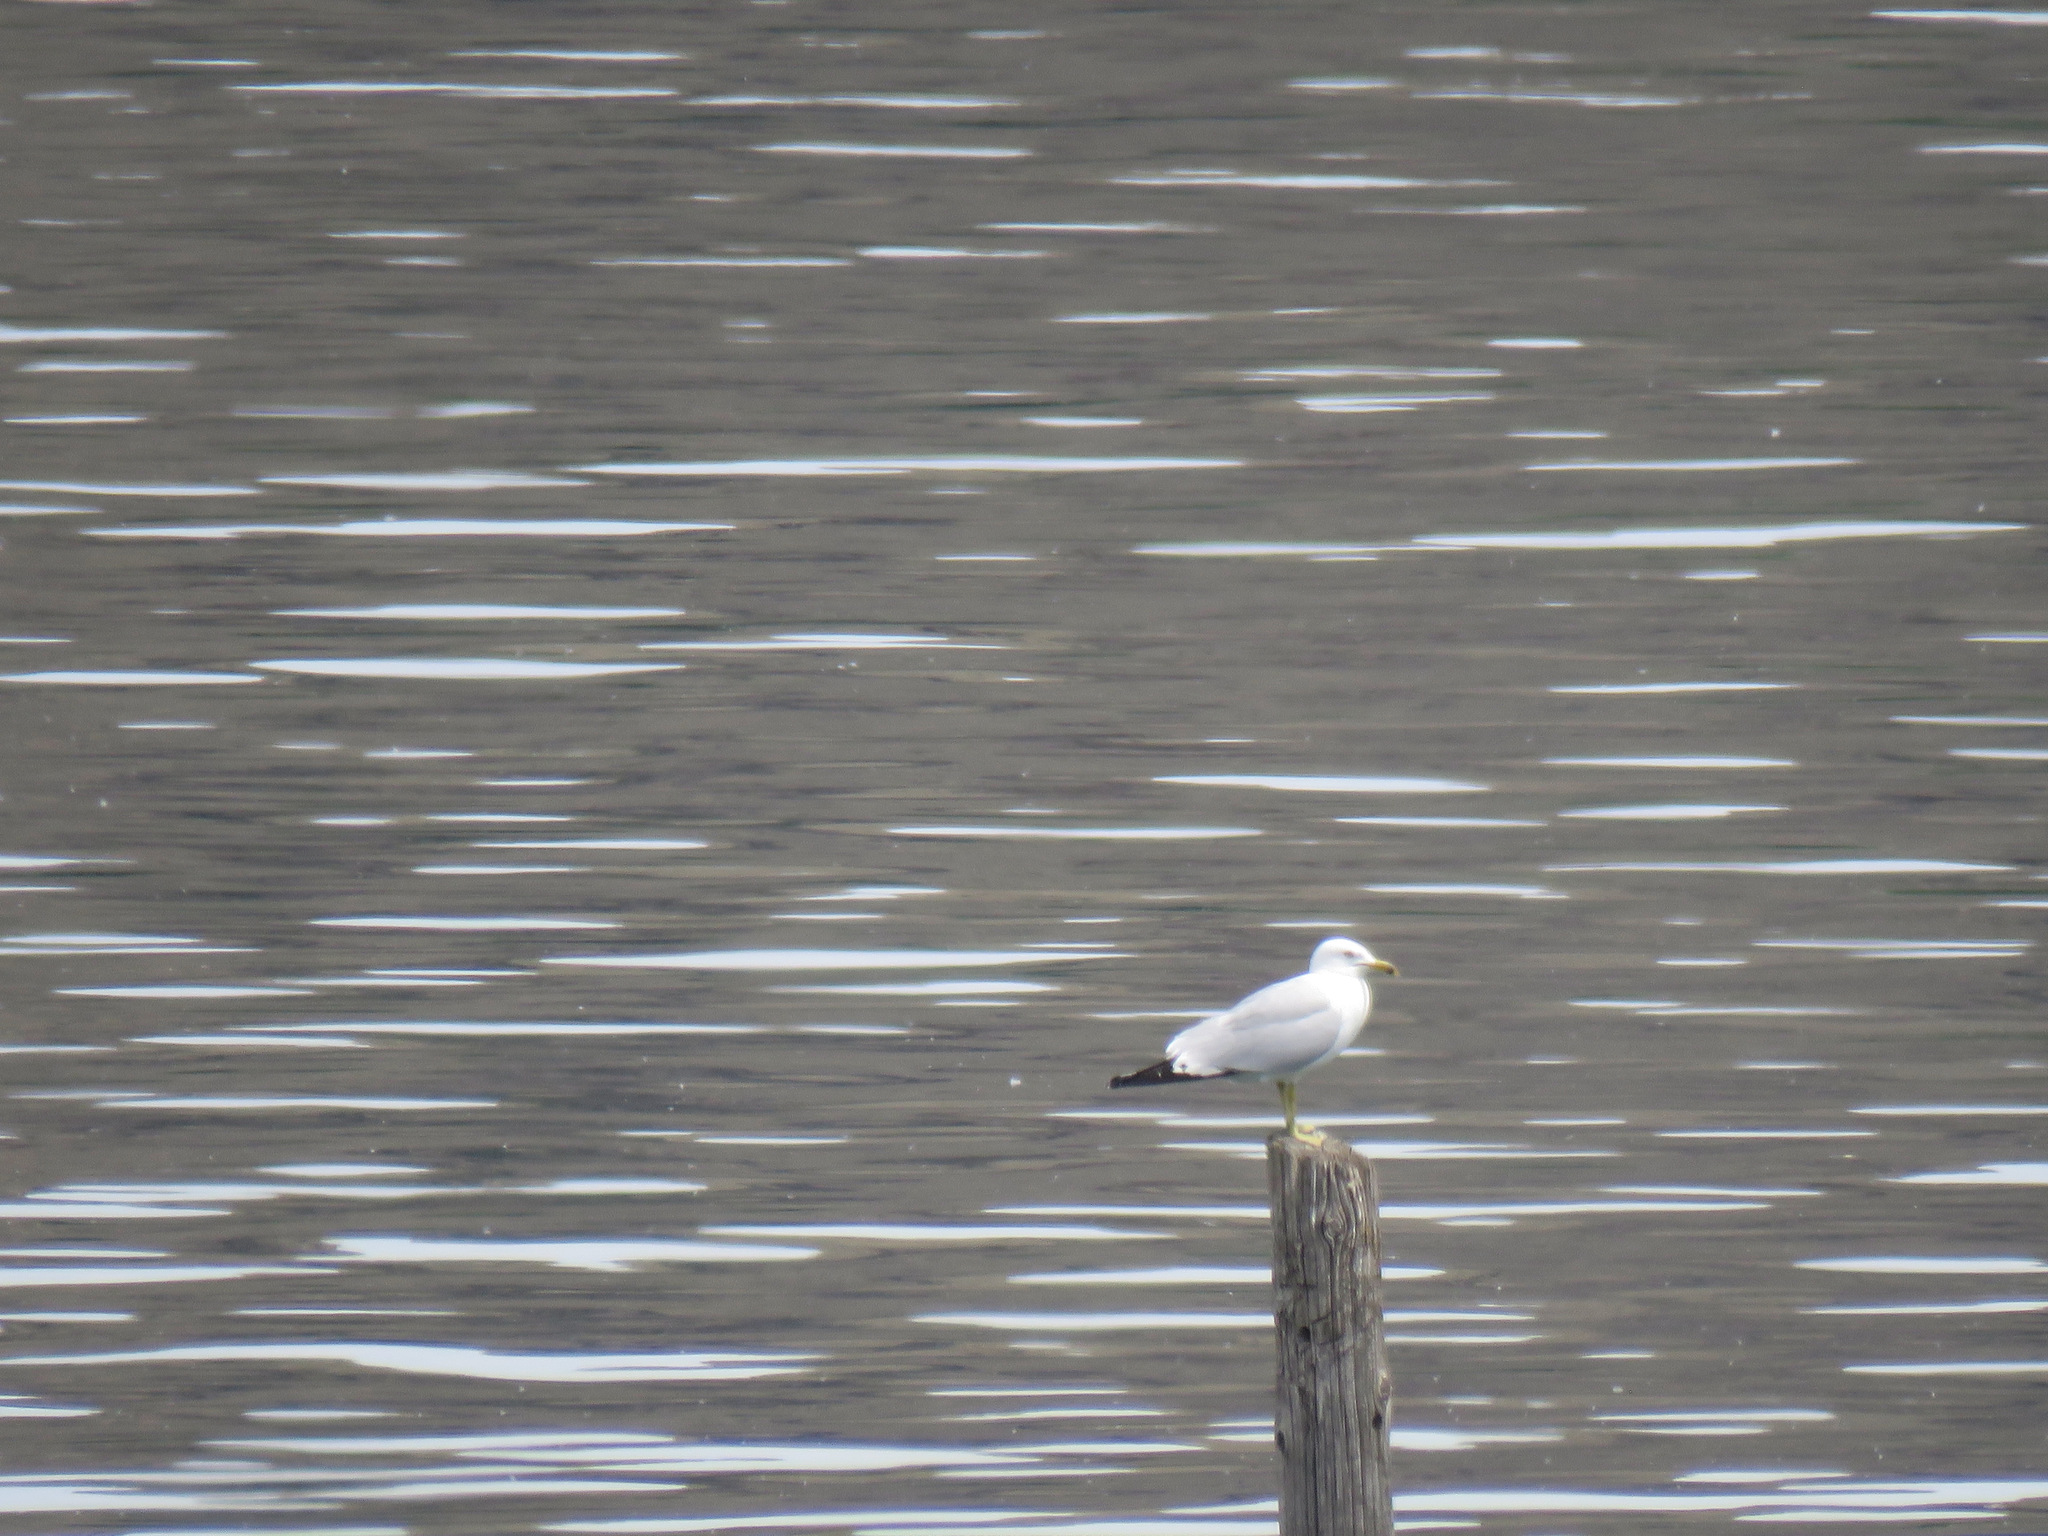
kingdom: Animalia
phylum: Chordata
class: Aves
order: Charadriiformes
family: Laridae
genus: Larus
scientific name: Larus delawarensis
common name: Ring-billed gull
